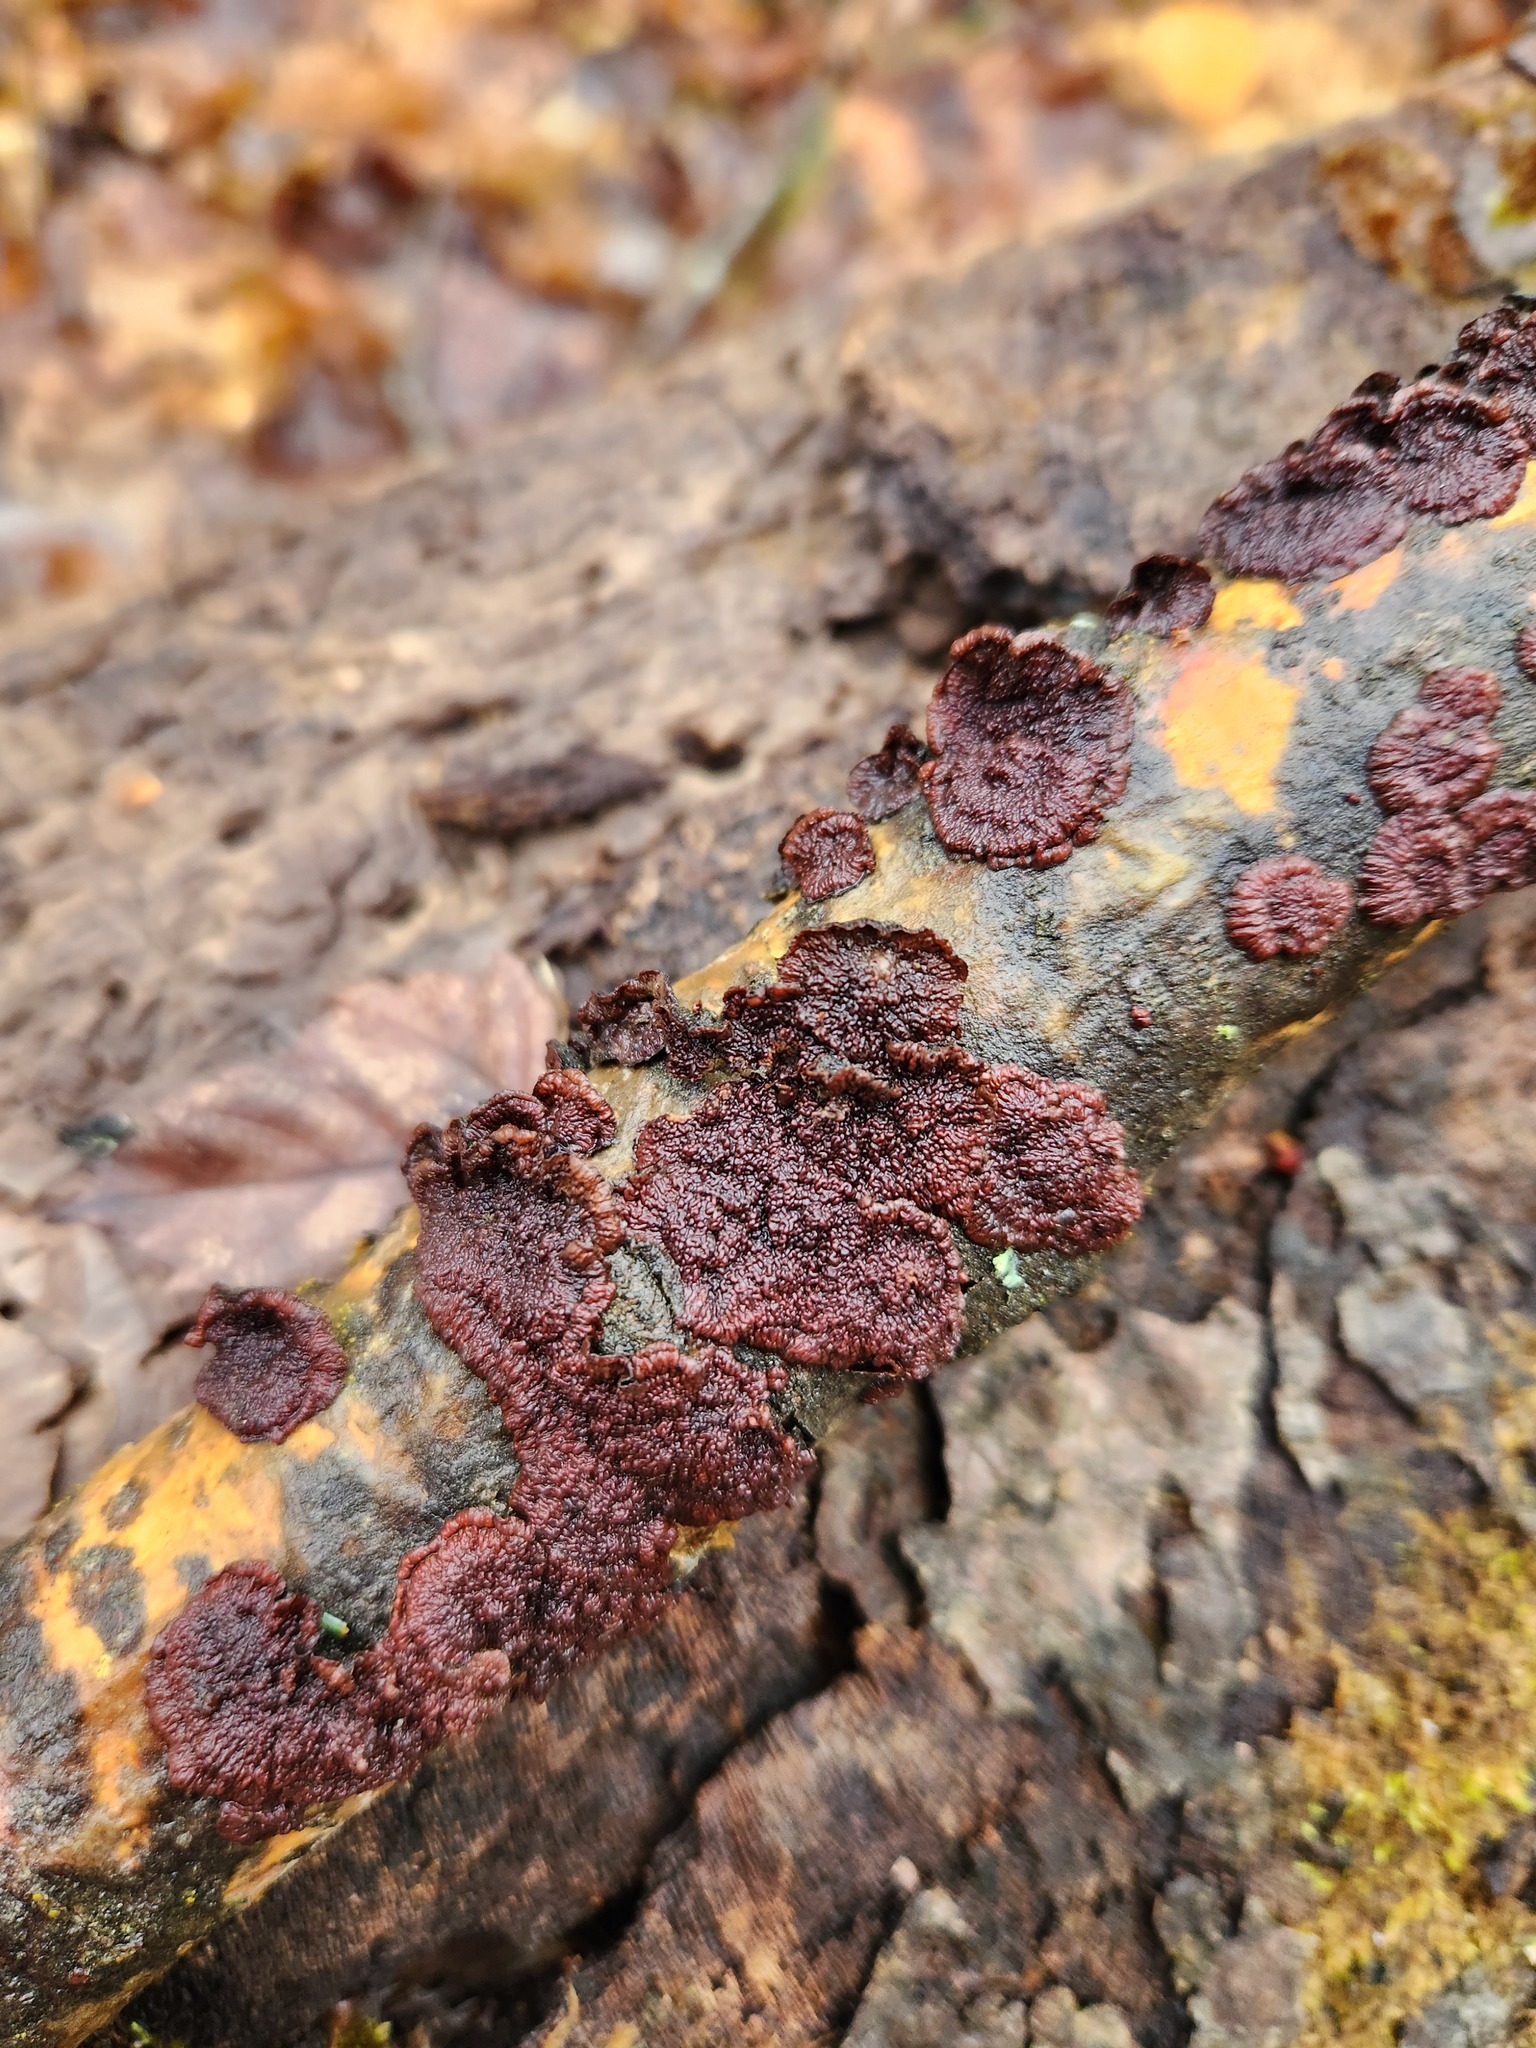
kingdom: Fungi
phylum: Basidiomycota
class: Agaricomycetes
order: Corticiales
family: Punctulariaceae
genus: Punctularia
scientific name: Punctularia strigosozonata
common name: White-rot fungus
